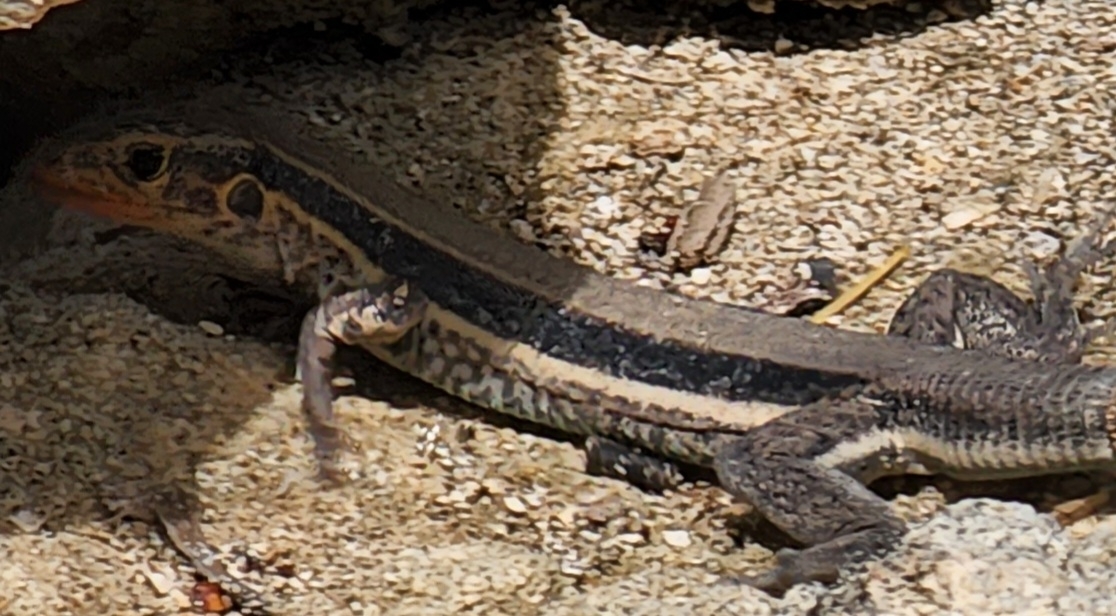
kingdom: Animalia
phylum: Chordata
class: Squamata
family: Teiidae
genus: Pholidoscelis
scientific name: Pholidoscelis auberi
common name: Auber's ameiva
